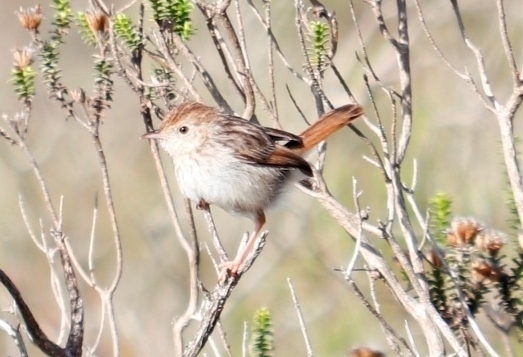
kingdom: Animalia
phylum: Chordata
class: Aves
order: Passeriformes
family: Cisticolidae
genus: Cisticola
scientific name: Cisticola subruficapilla
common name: Grey-backed cisticola
